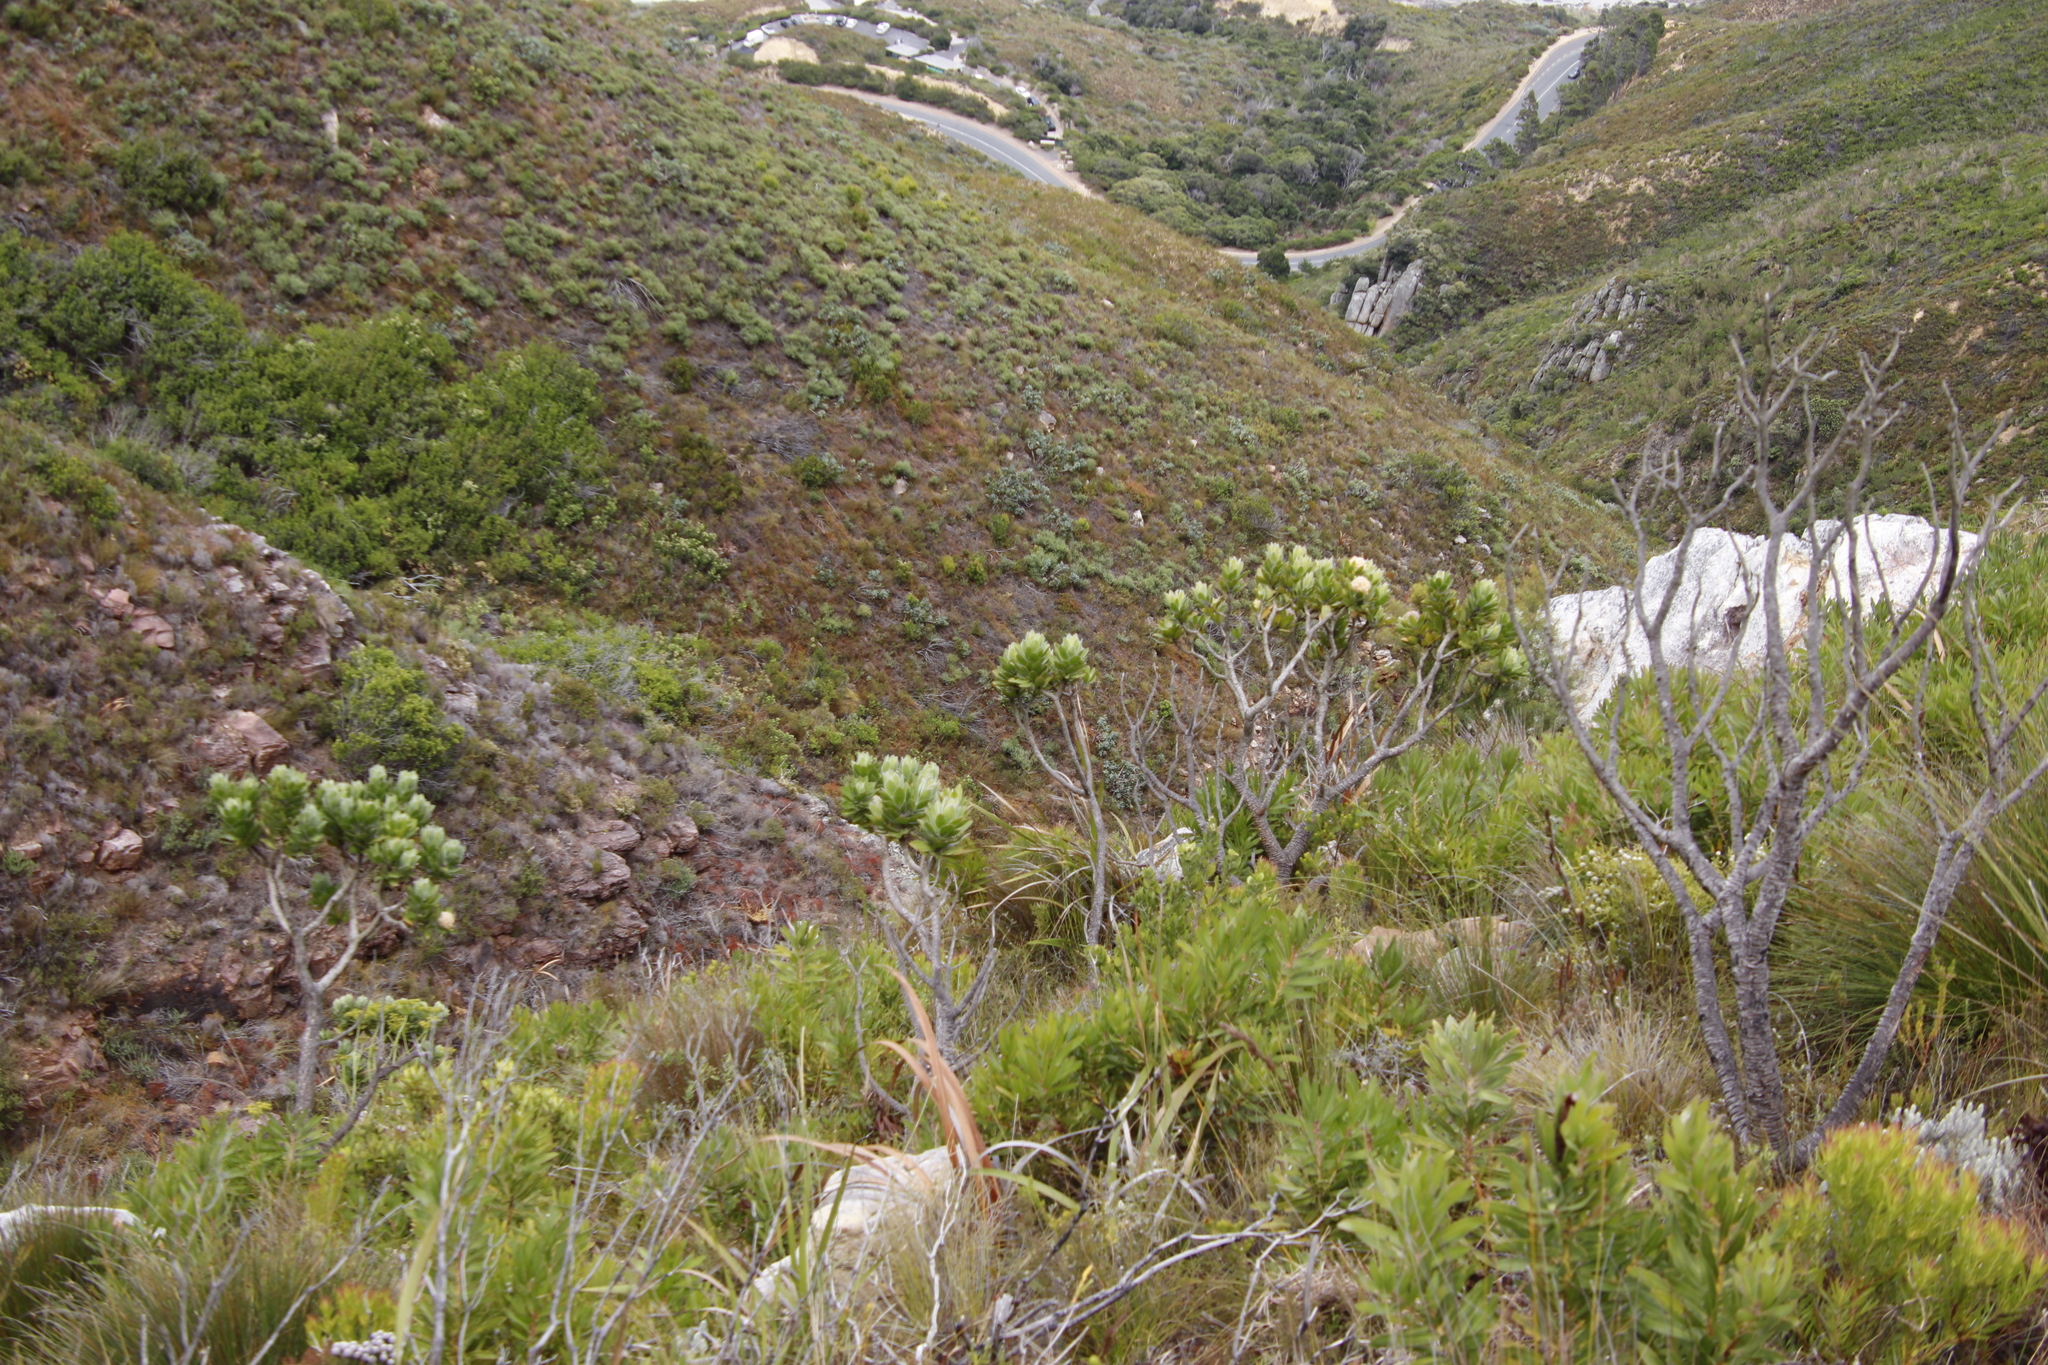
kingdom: Plantae
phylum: Tracheophyta
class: Magnoliopsida
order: Proteales
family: Proteaceae
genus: Leucospermum
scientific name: Leucospermum conocarpodendron
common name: Tree pincushion
